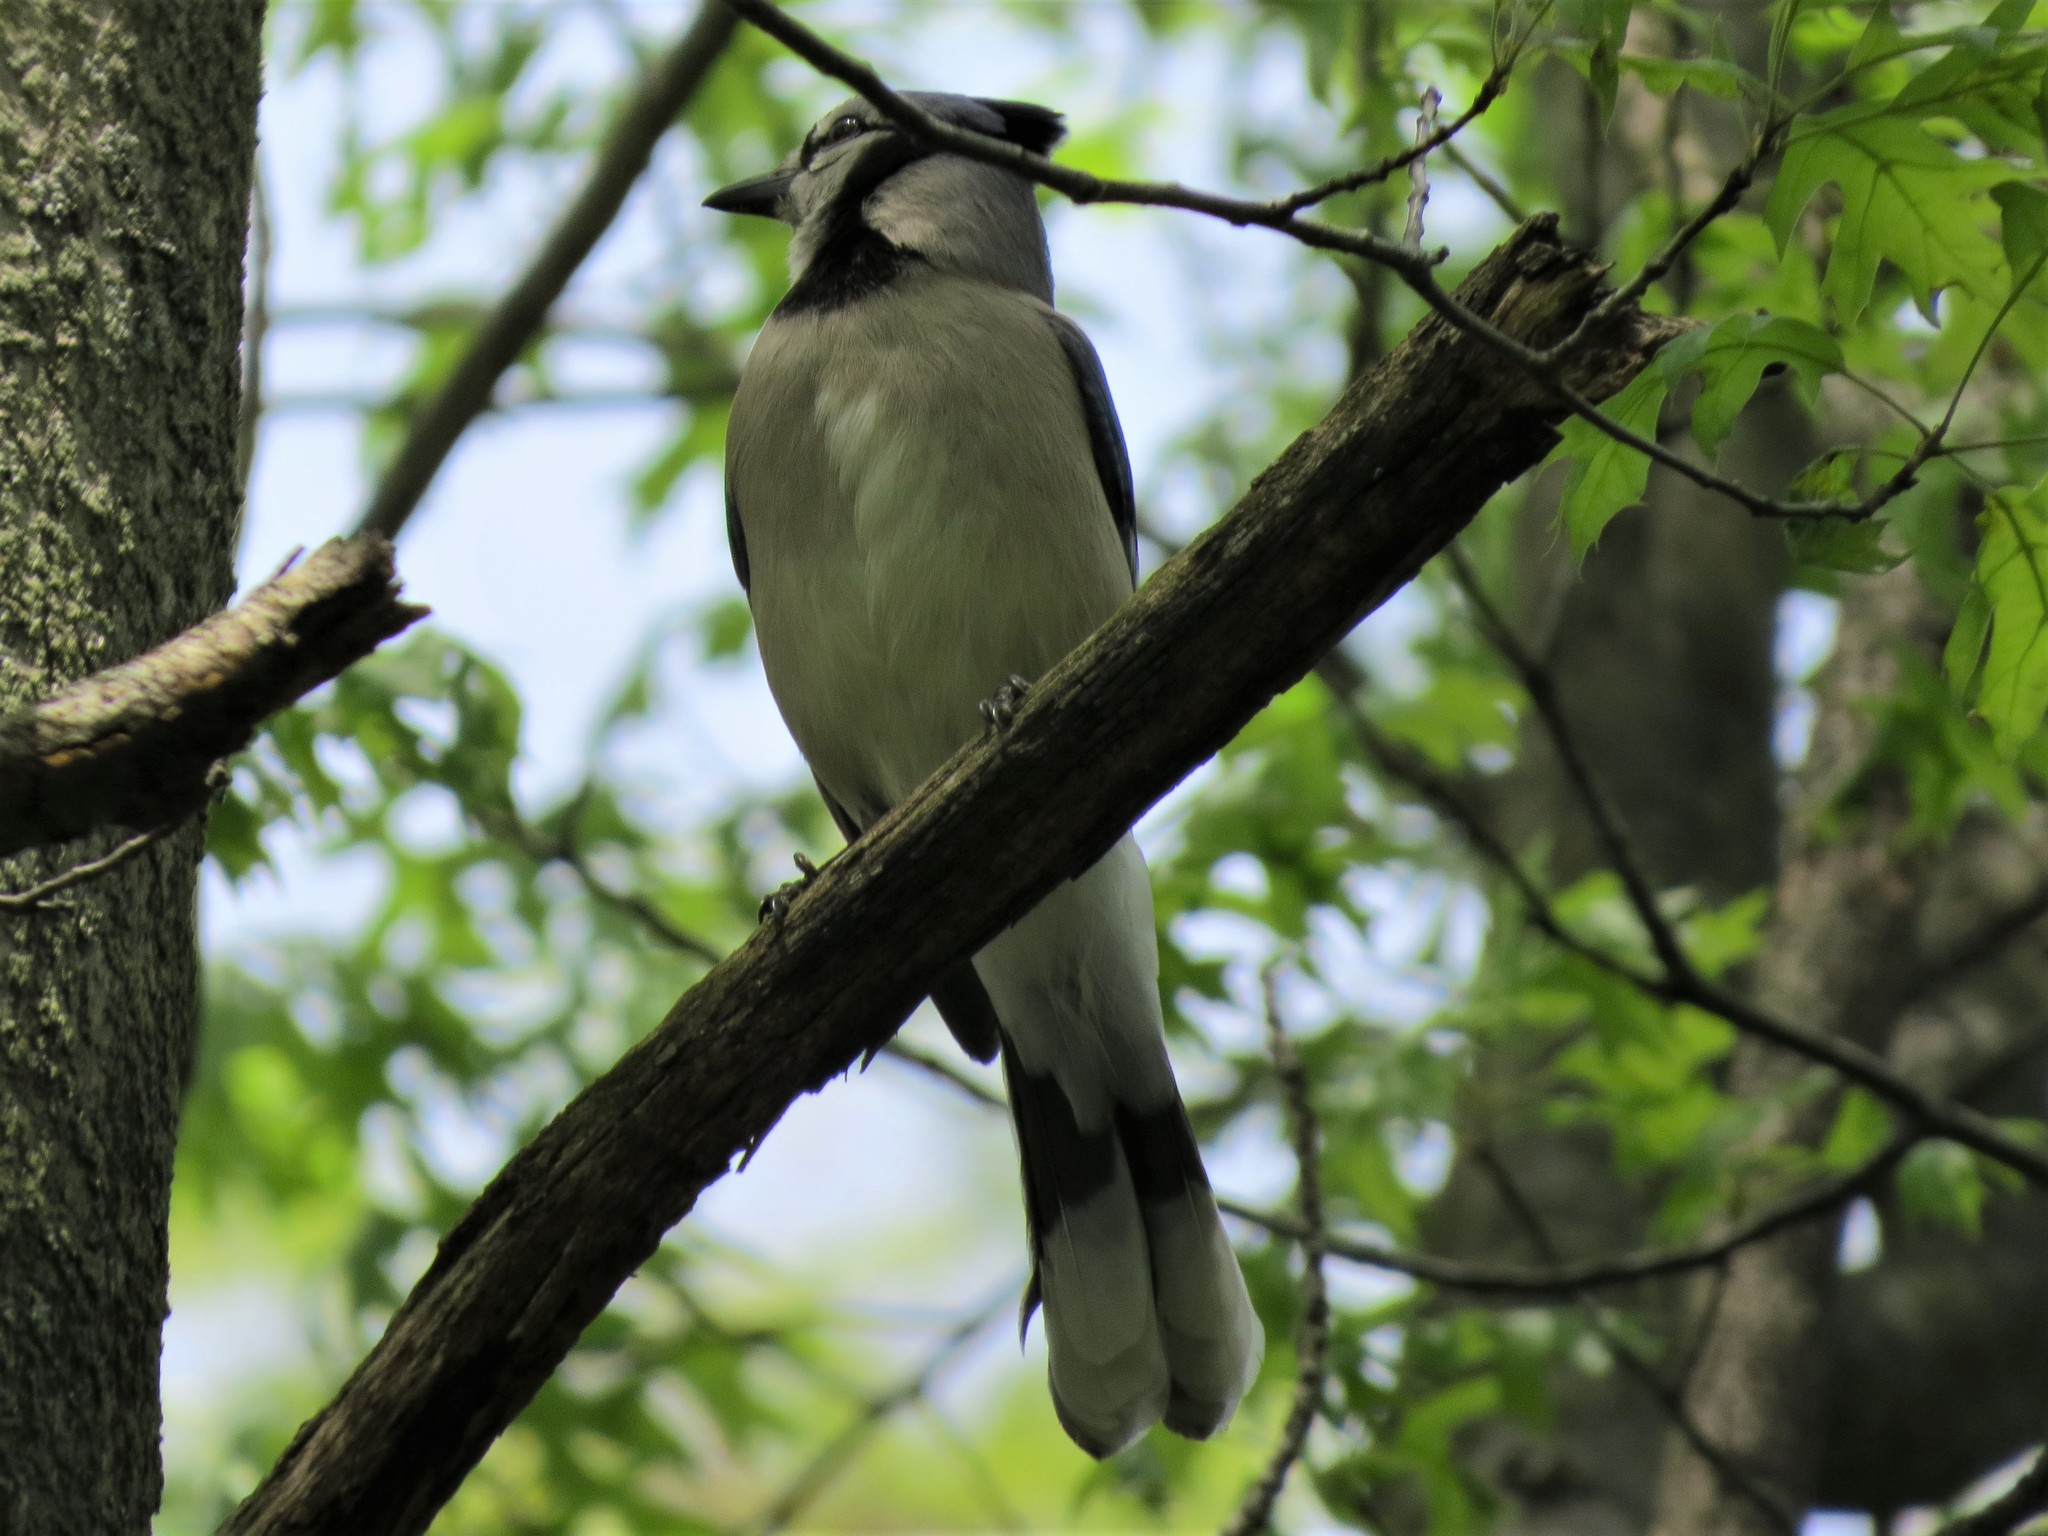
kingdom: Animalia
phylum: Chordata
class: Aves
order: Passeriformes
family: Corvidae
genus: Cyanocitta
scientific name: Cyanocitta cristata
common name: Blue jay
